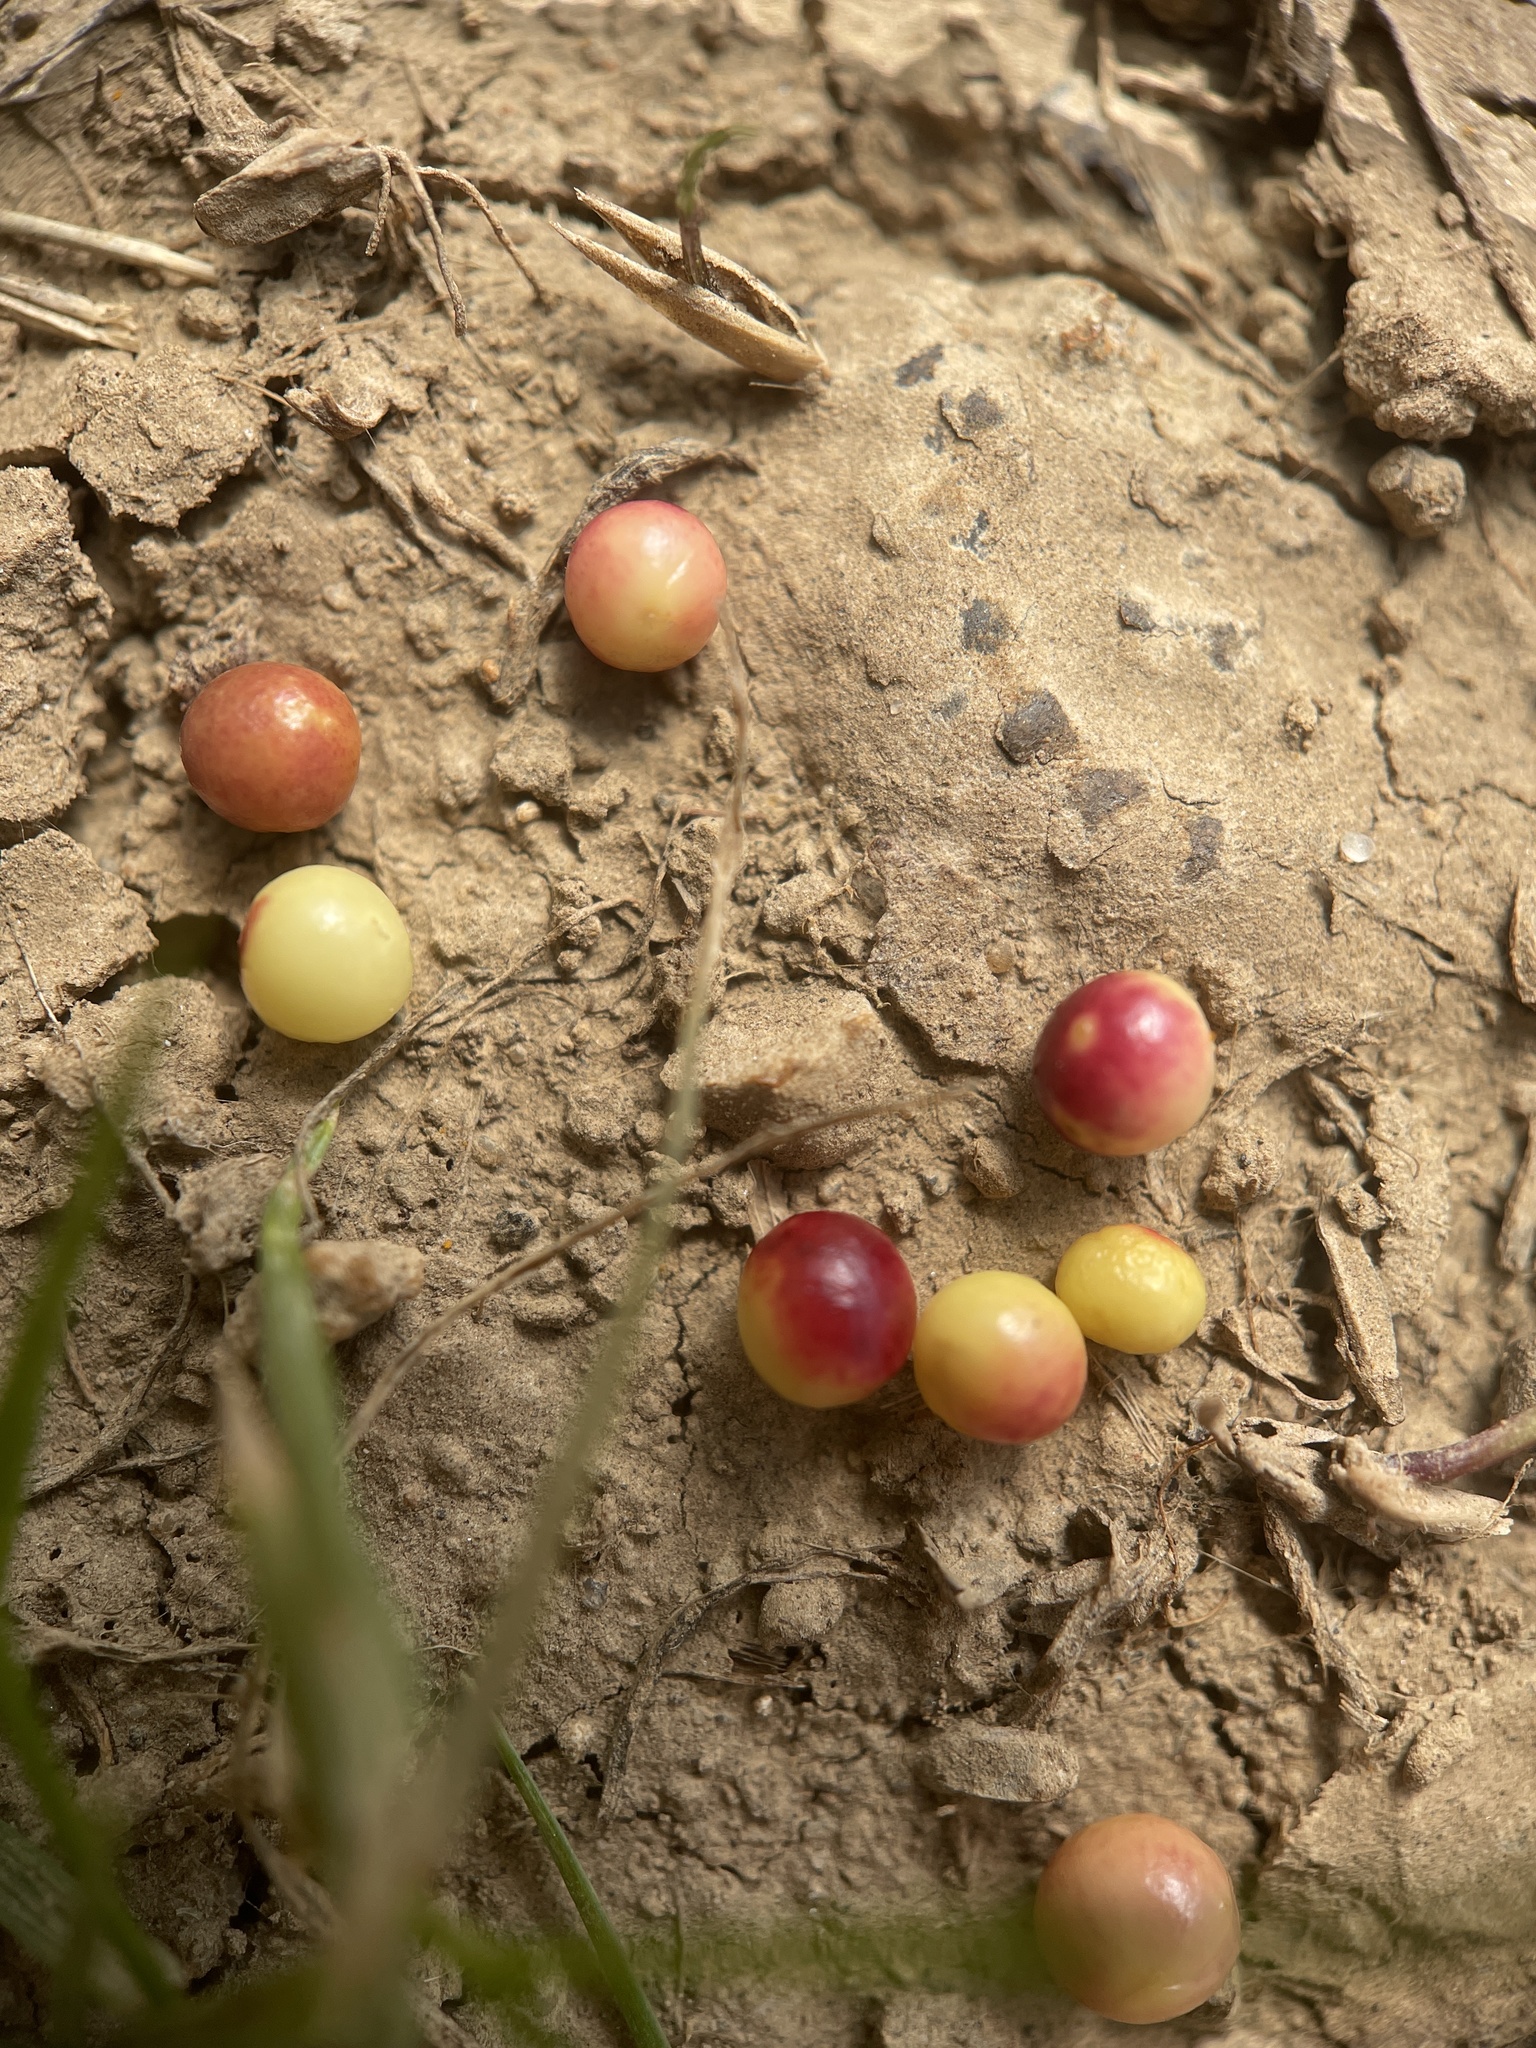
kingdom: Animalia
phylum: Arthropoda
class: Insecta
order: Hymenoptera
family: Cynipidae
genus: Zopheroteras
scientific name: Zopheroteras
